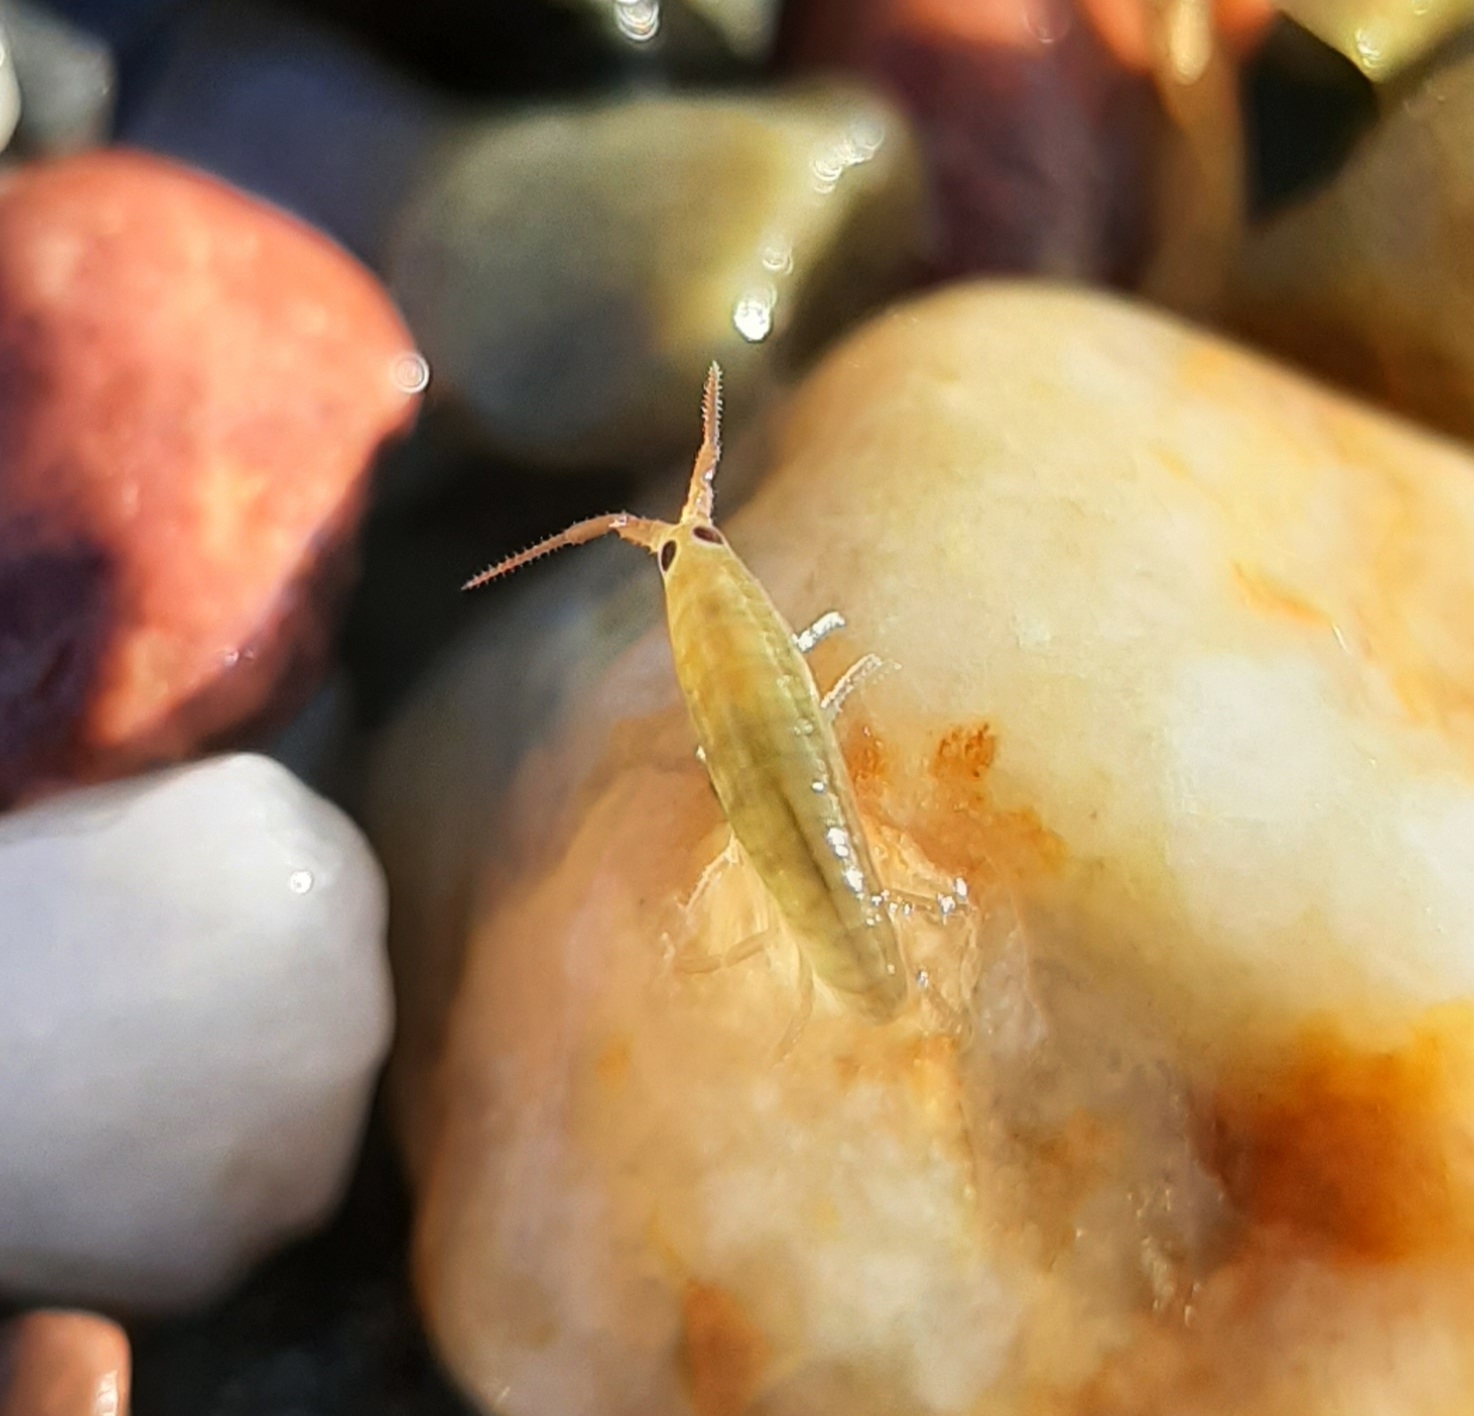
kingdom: Animalia
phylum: Arthropoda
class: Malacostraca
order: Amphipoda
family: Talitridae
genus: Platorchestia
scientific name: Platorchestia platensis
